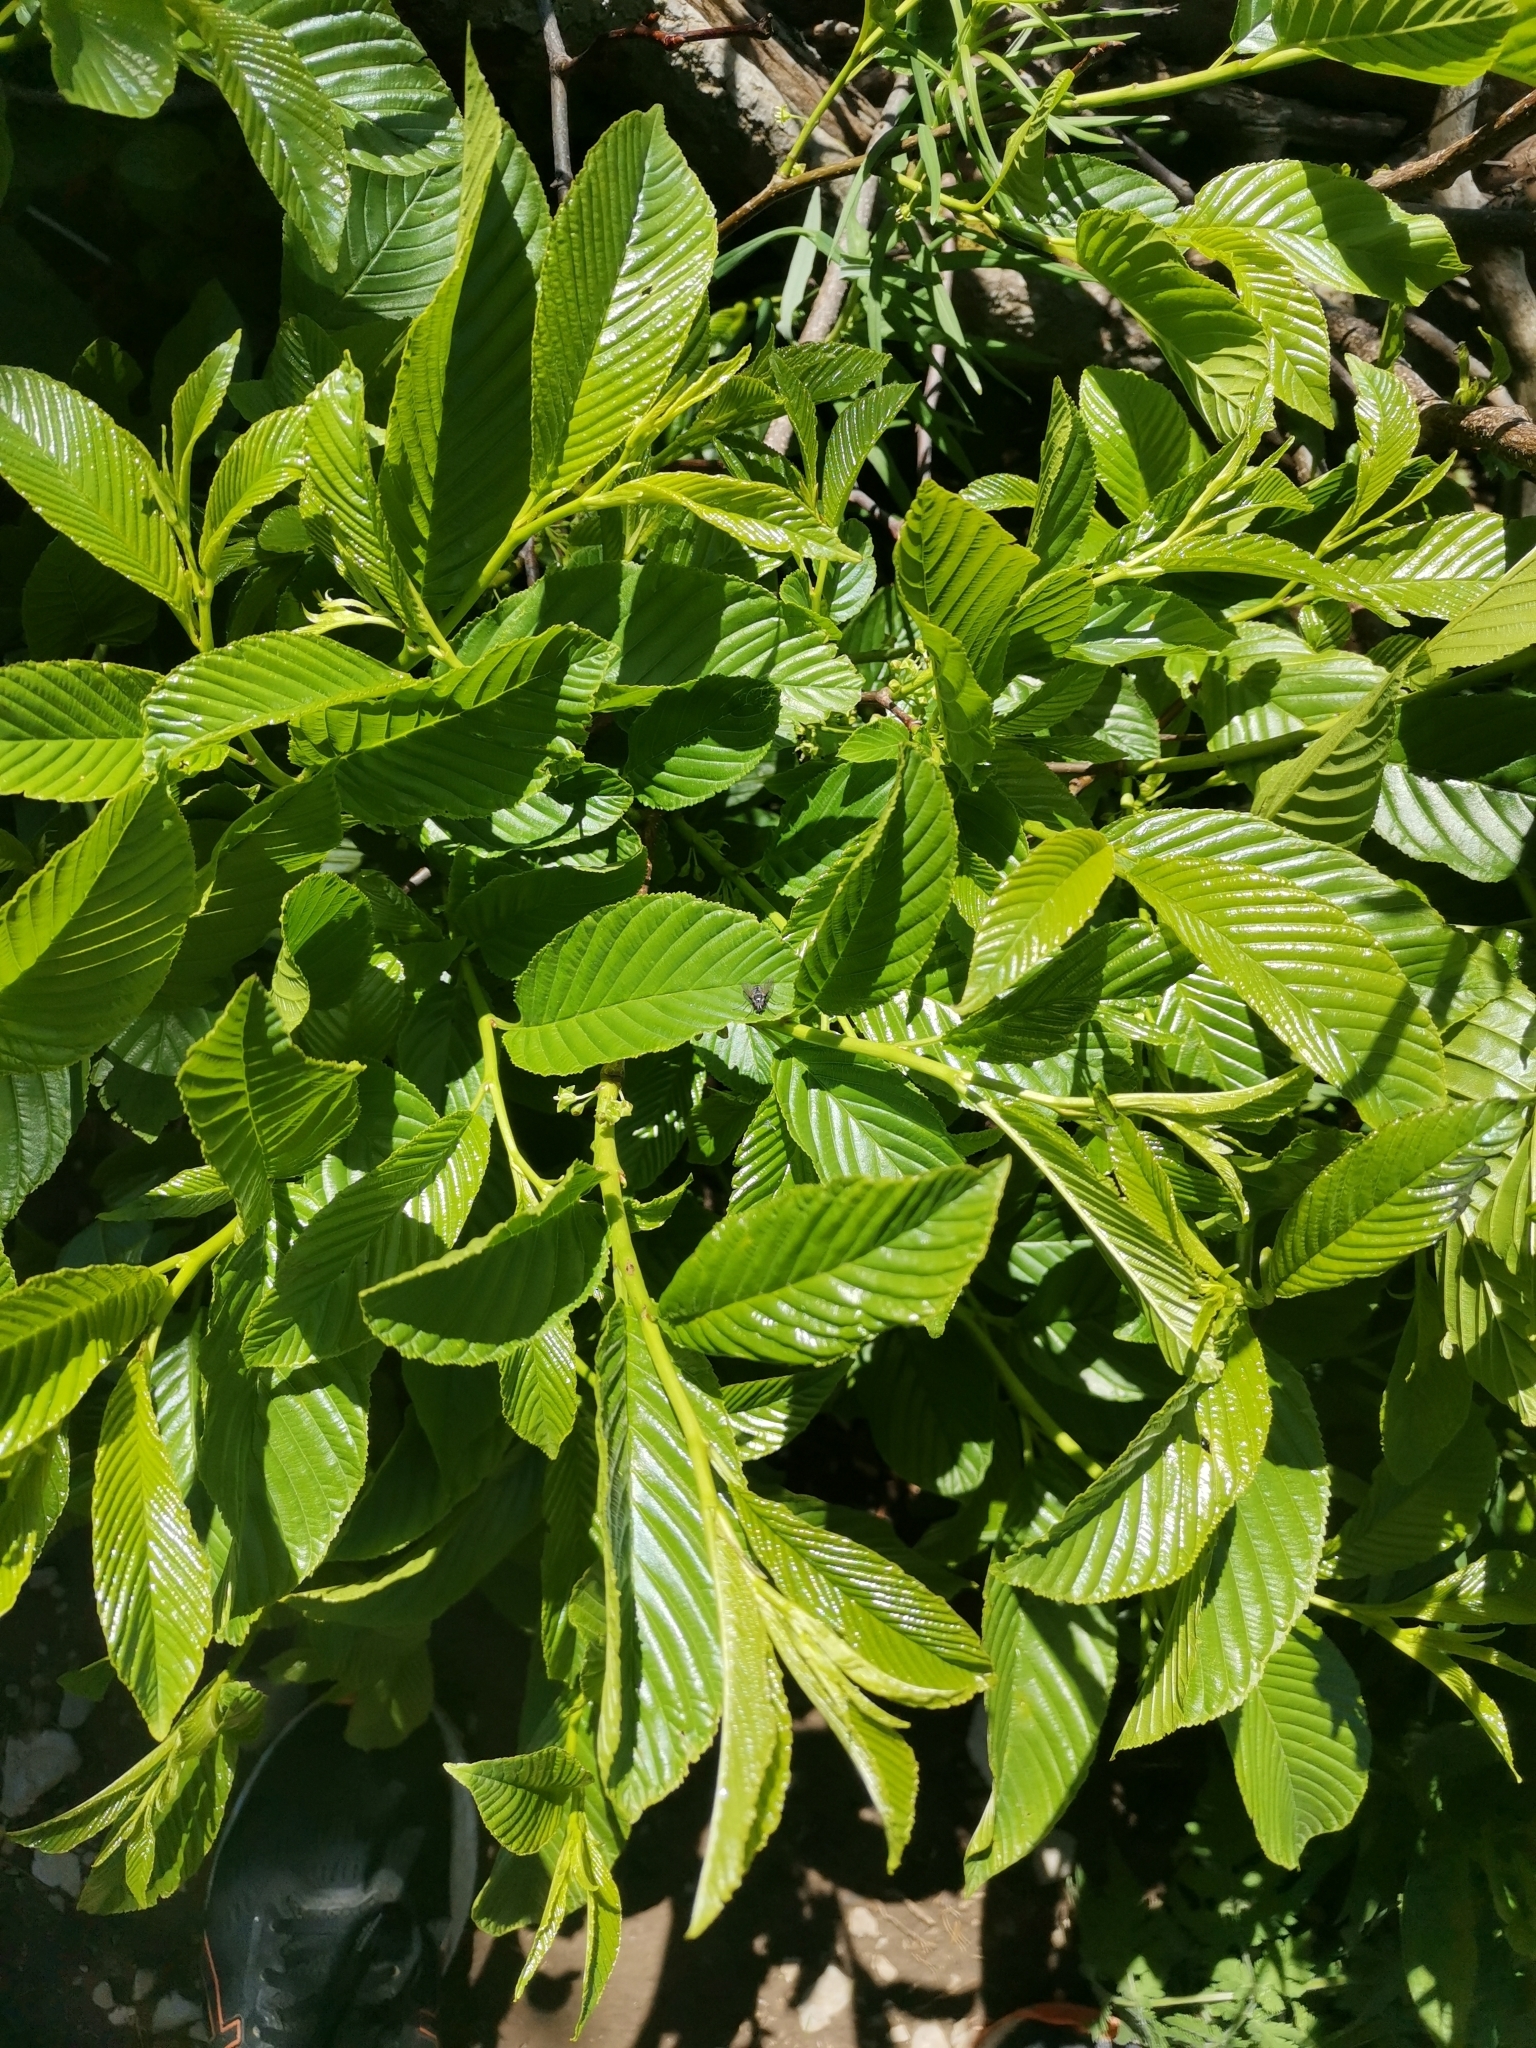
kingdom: Plantae
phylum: Tracheophyta
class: Magnoliopsida
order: Rosales
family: Rhamnaceae
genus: Atadinus
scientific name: Atadinus fallax
